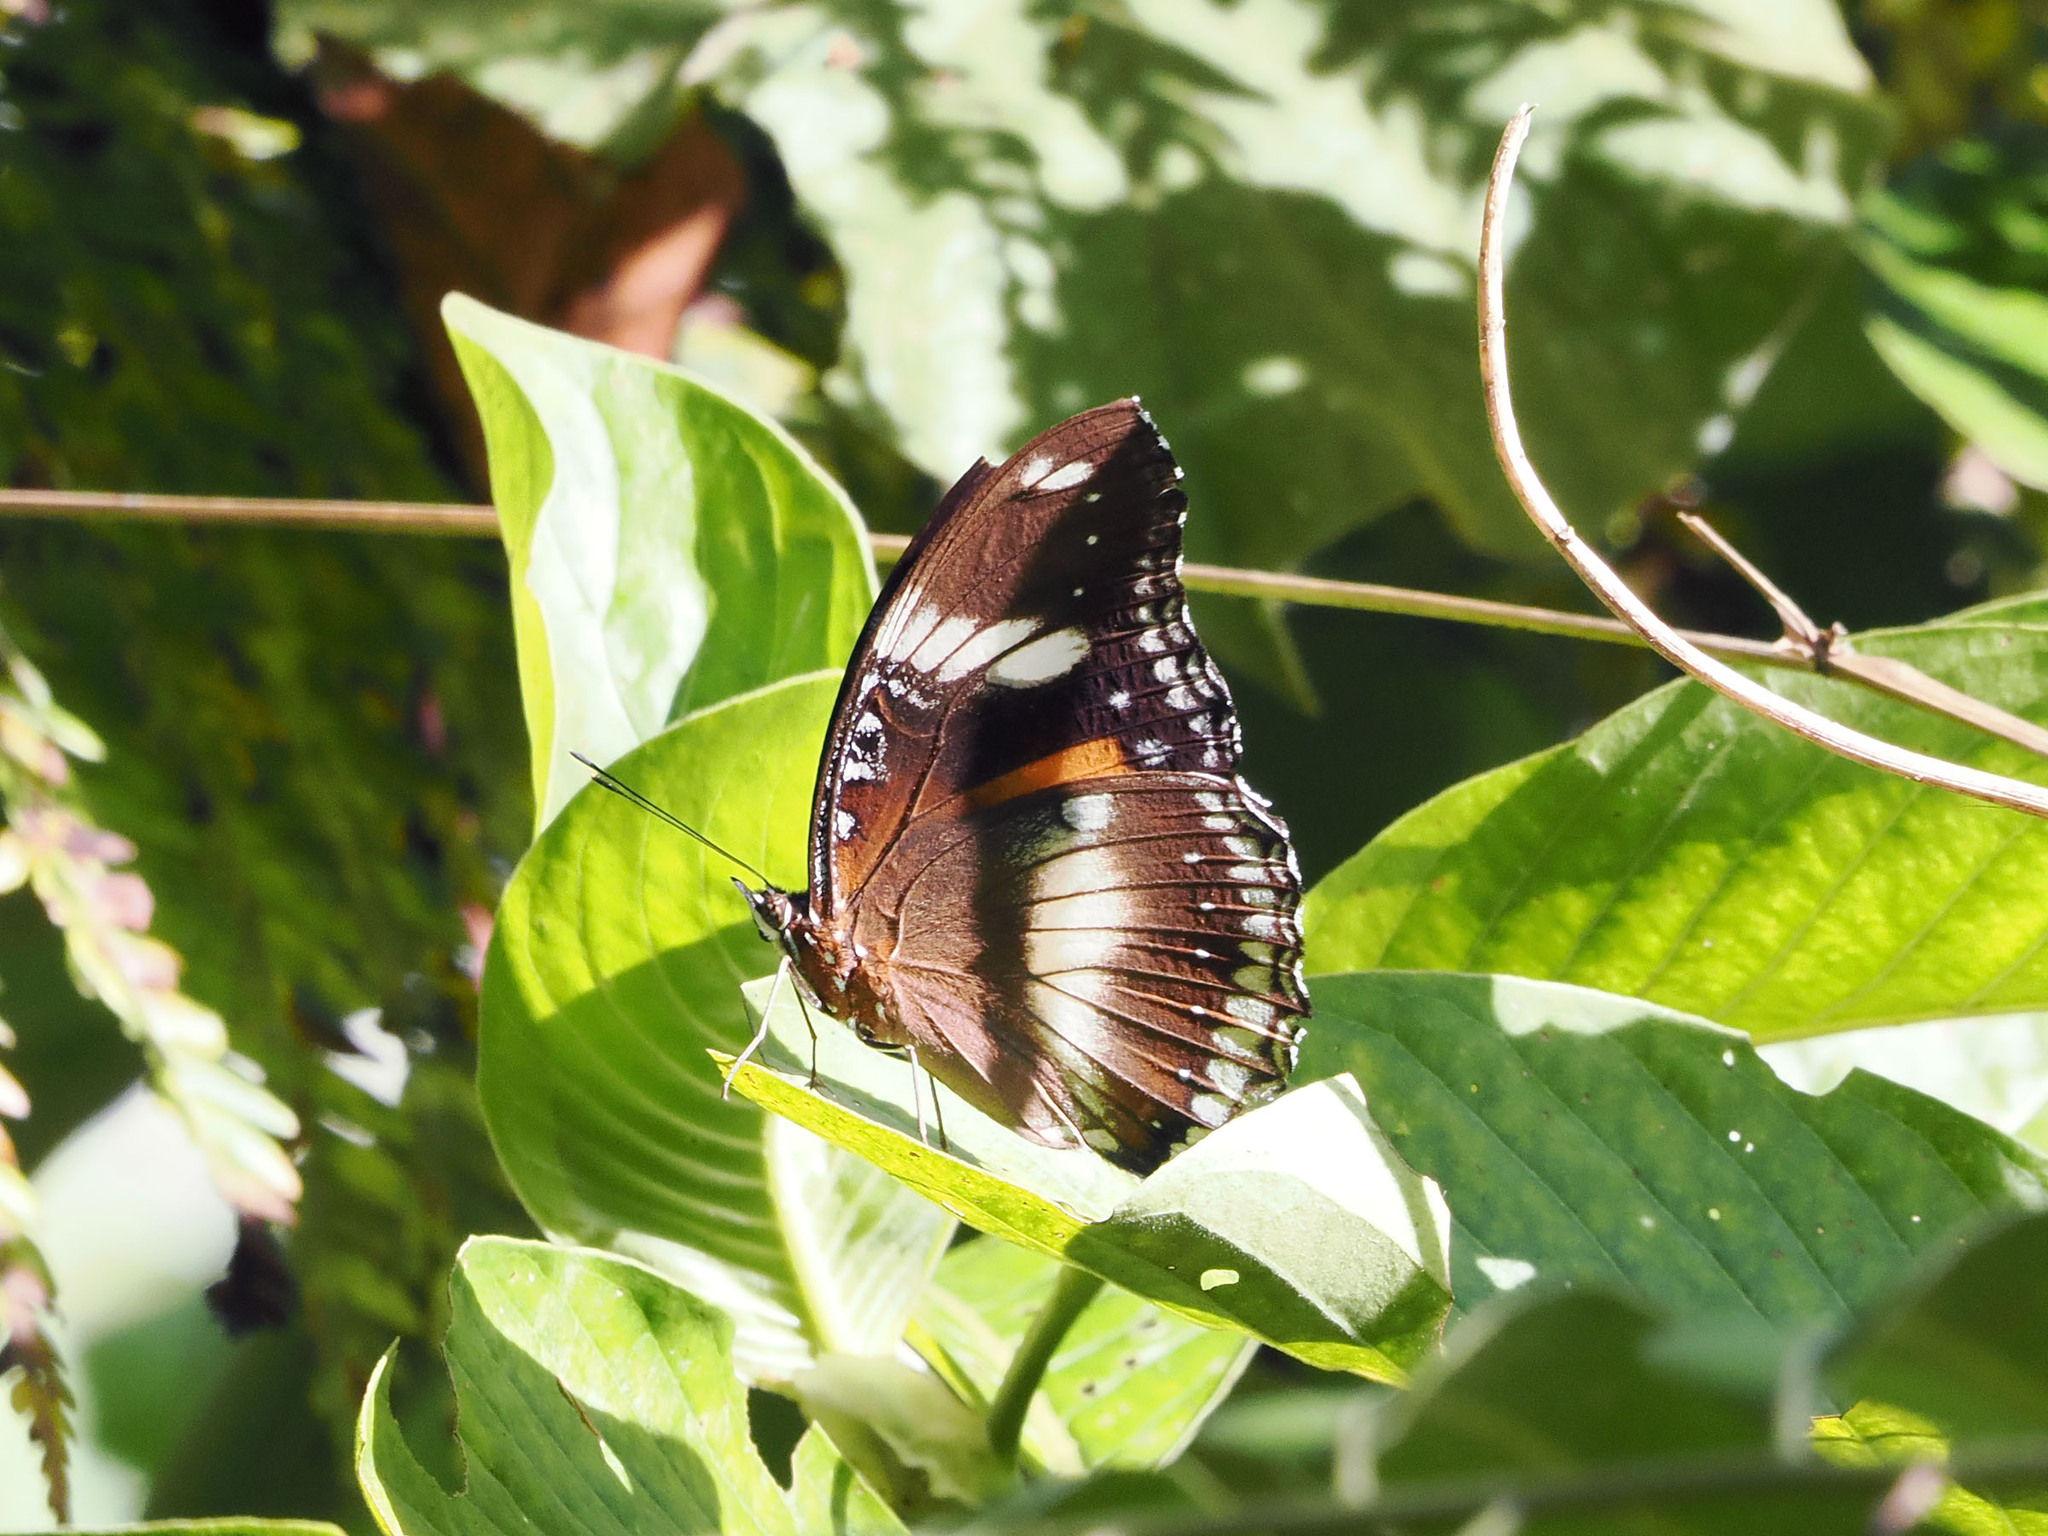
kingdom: Animalia
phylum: Arthropoda
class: Insecta
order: Lepidoptera
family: Nymphalidae
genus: Hypolimnas
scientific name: Hypolimnas bolina
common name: Great eggfly
